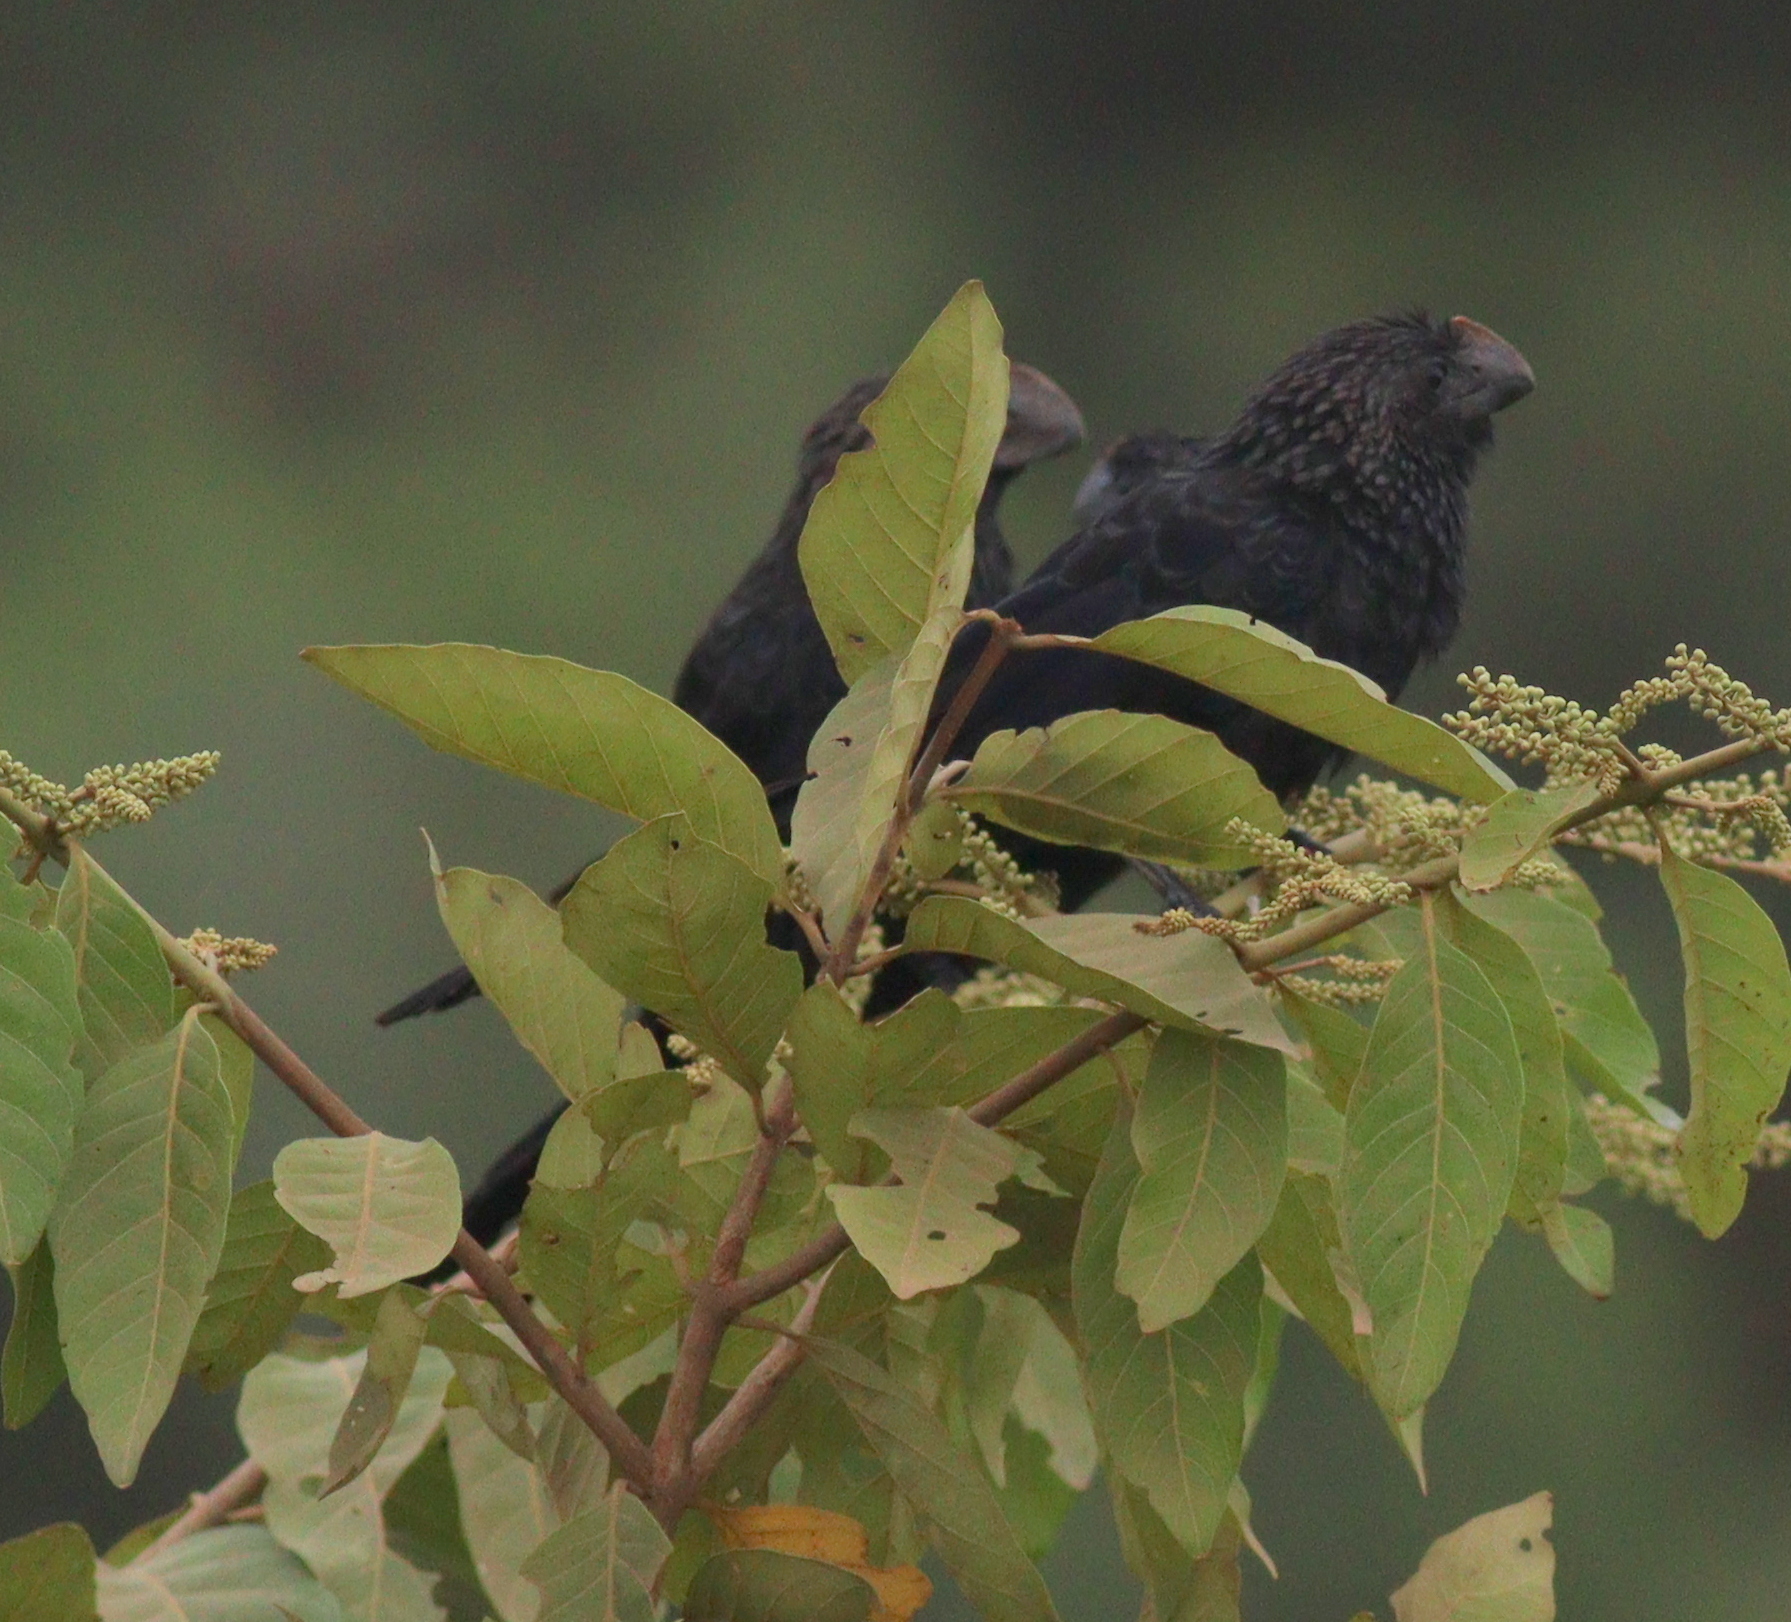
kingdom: Animalia
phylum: Chordata
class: Aves
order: Cuculiformes
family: Cuculidae
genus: Crotophaga
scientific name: Crotophaga ani
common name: Smooth-billed ani
